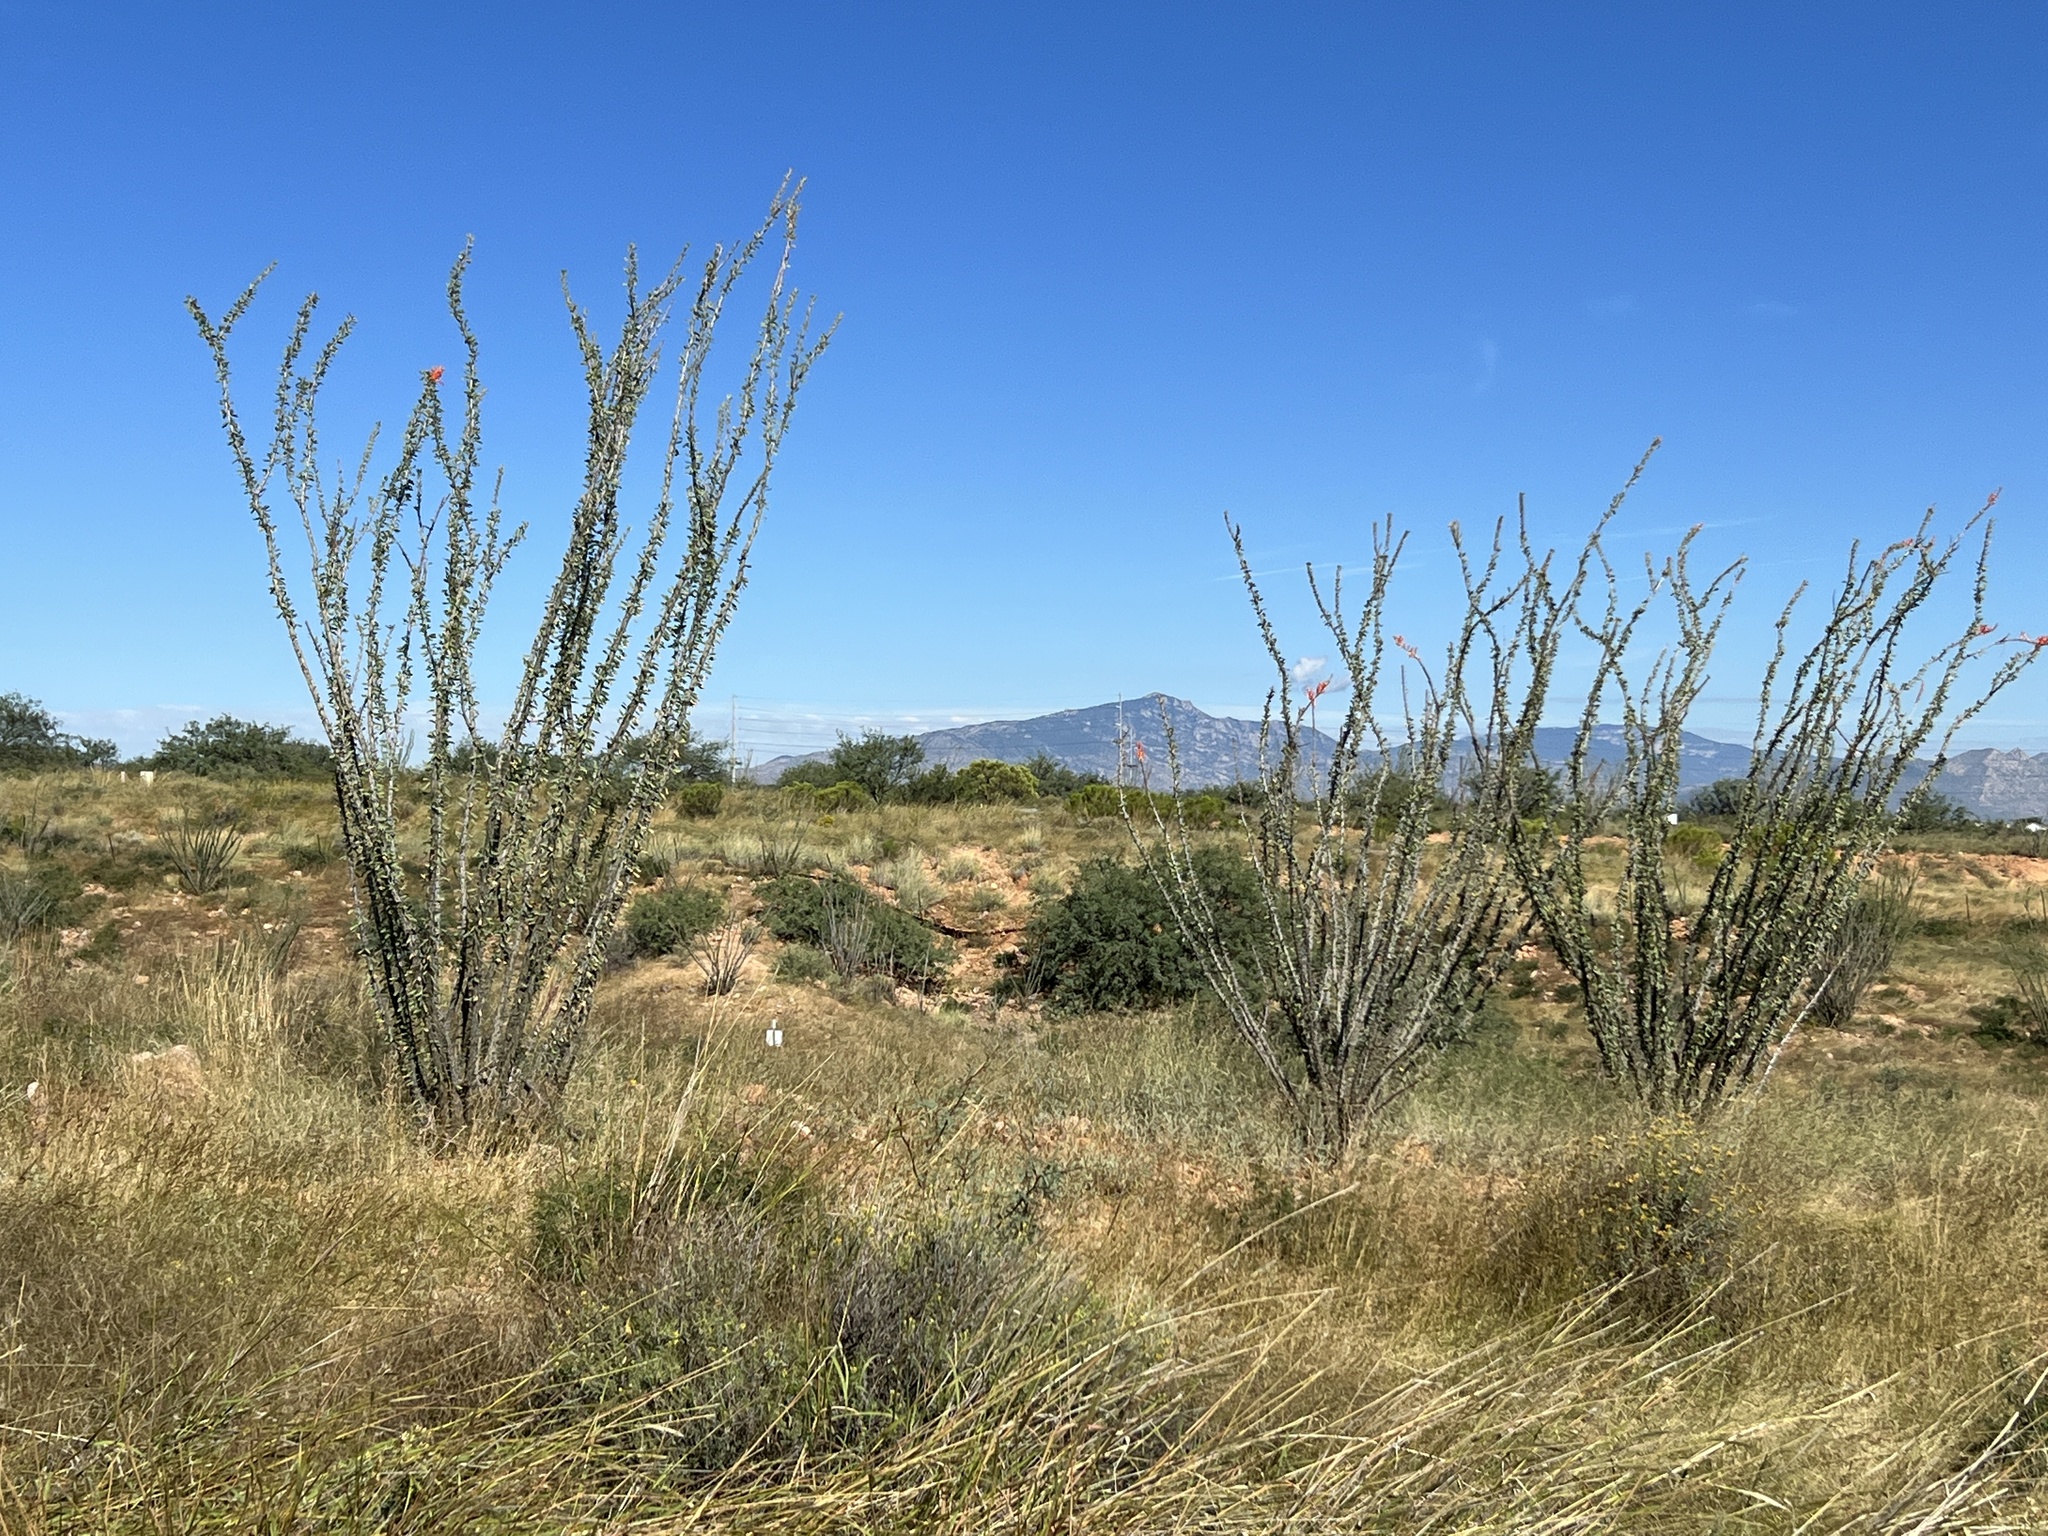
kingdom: Plantae
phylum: Tracheophyta
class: Magnoliopsida
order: Ericales
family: Fouquieriaceae
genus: Fouquieria
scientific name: Fouquieria splendens
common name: Vine-cactus
